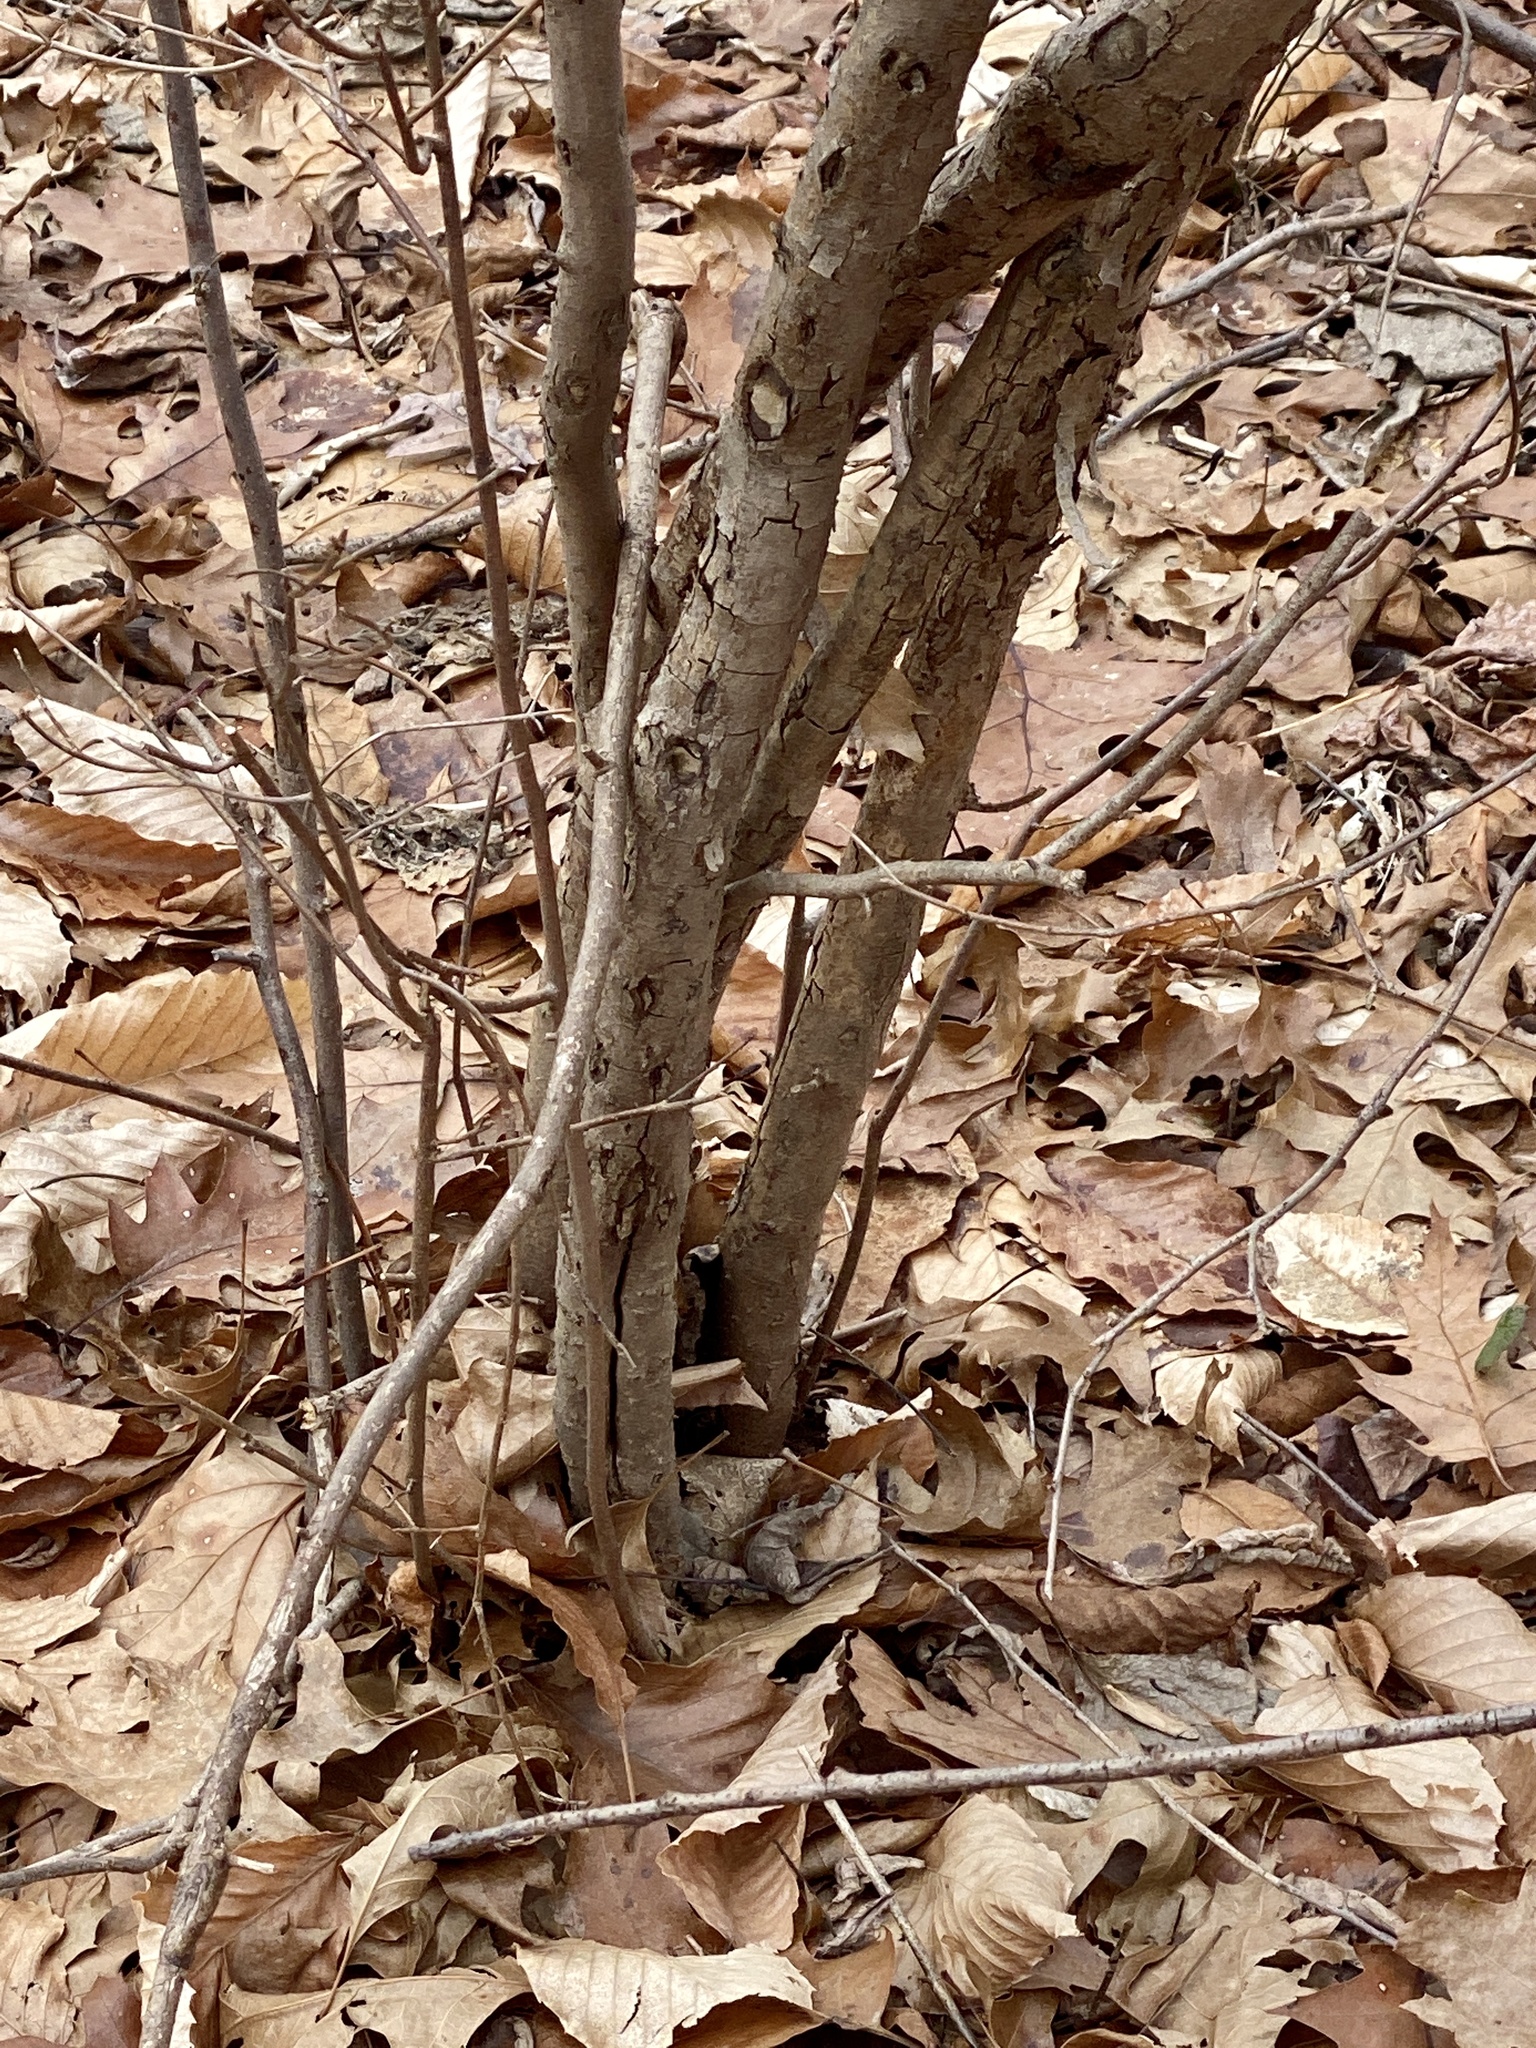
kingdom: Plantae
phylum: Tracheophyta
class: Magnoliopsida
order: Laurales
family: Lauraceae
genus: Lindera
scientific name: Lindera benzoin
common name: Spicebush
